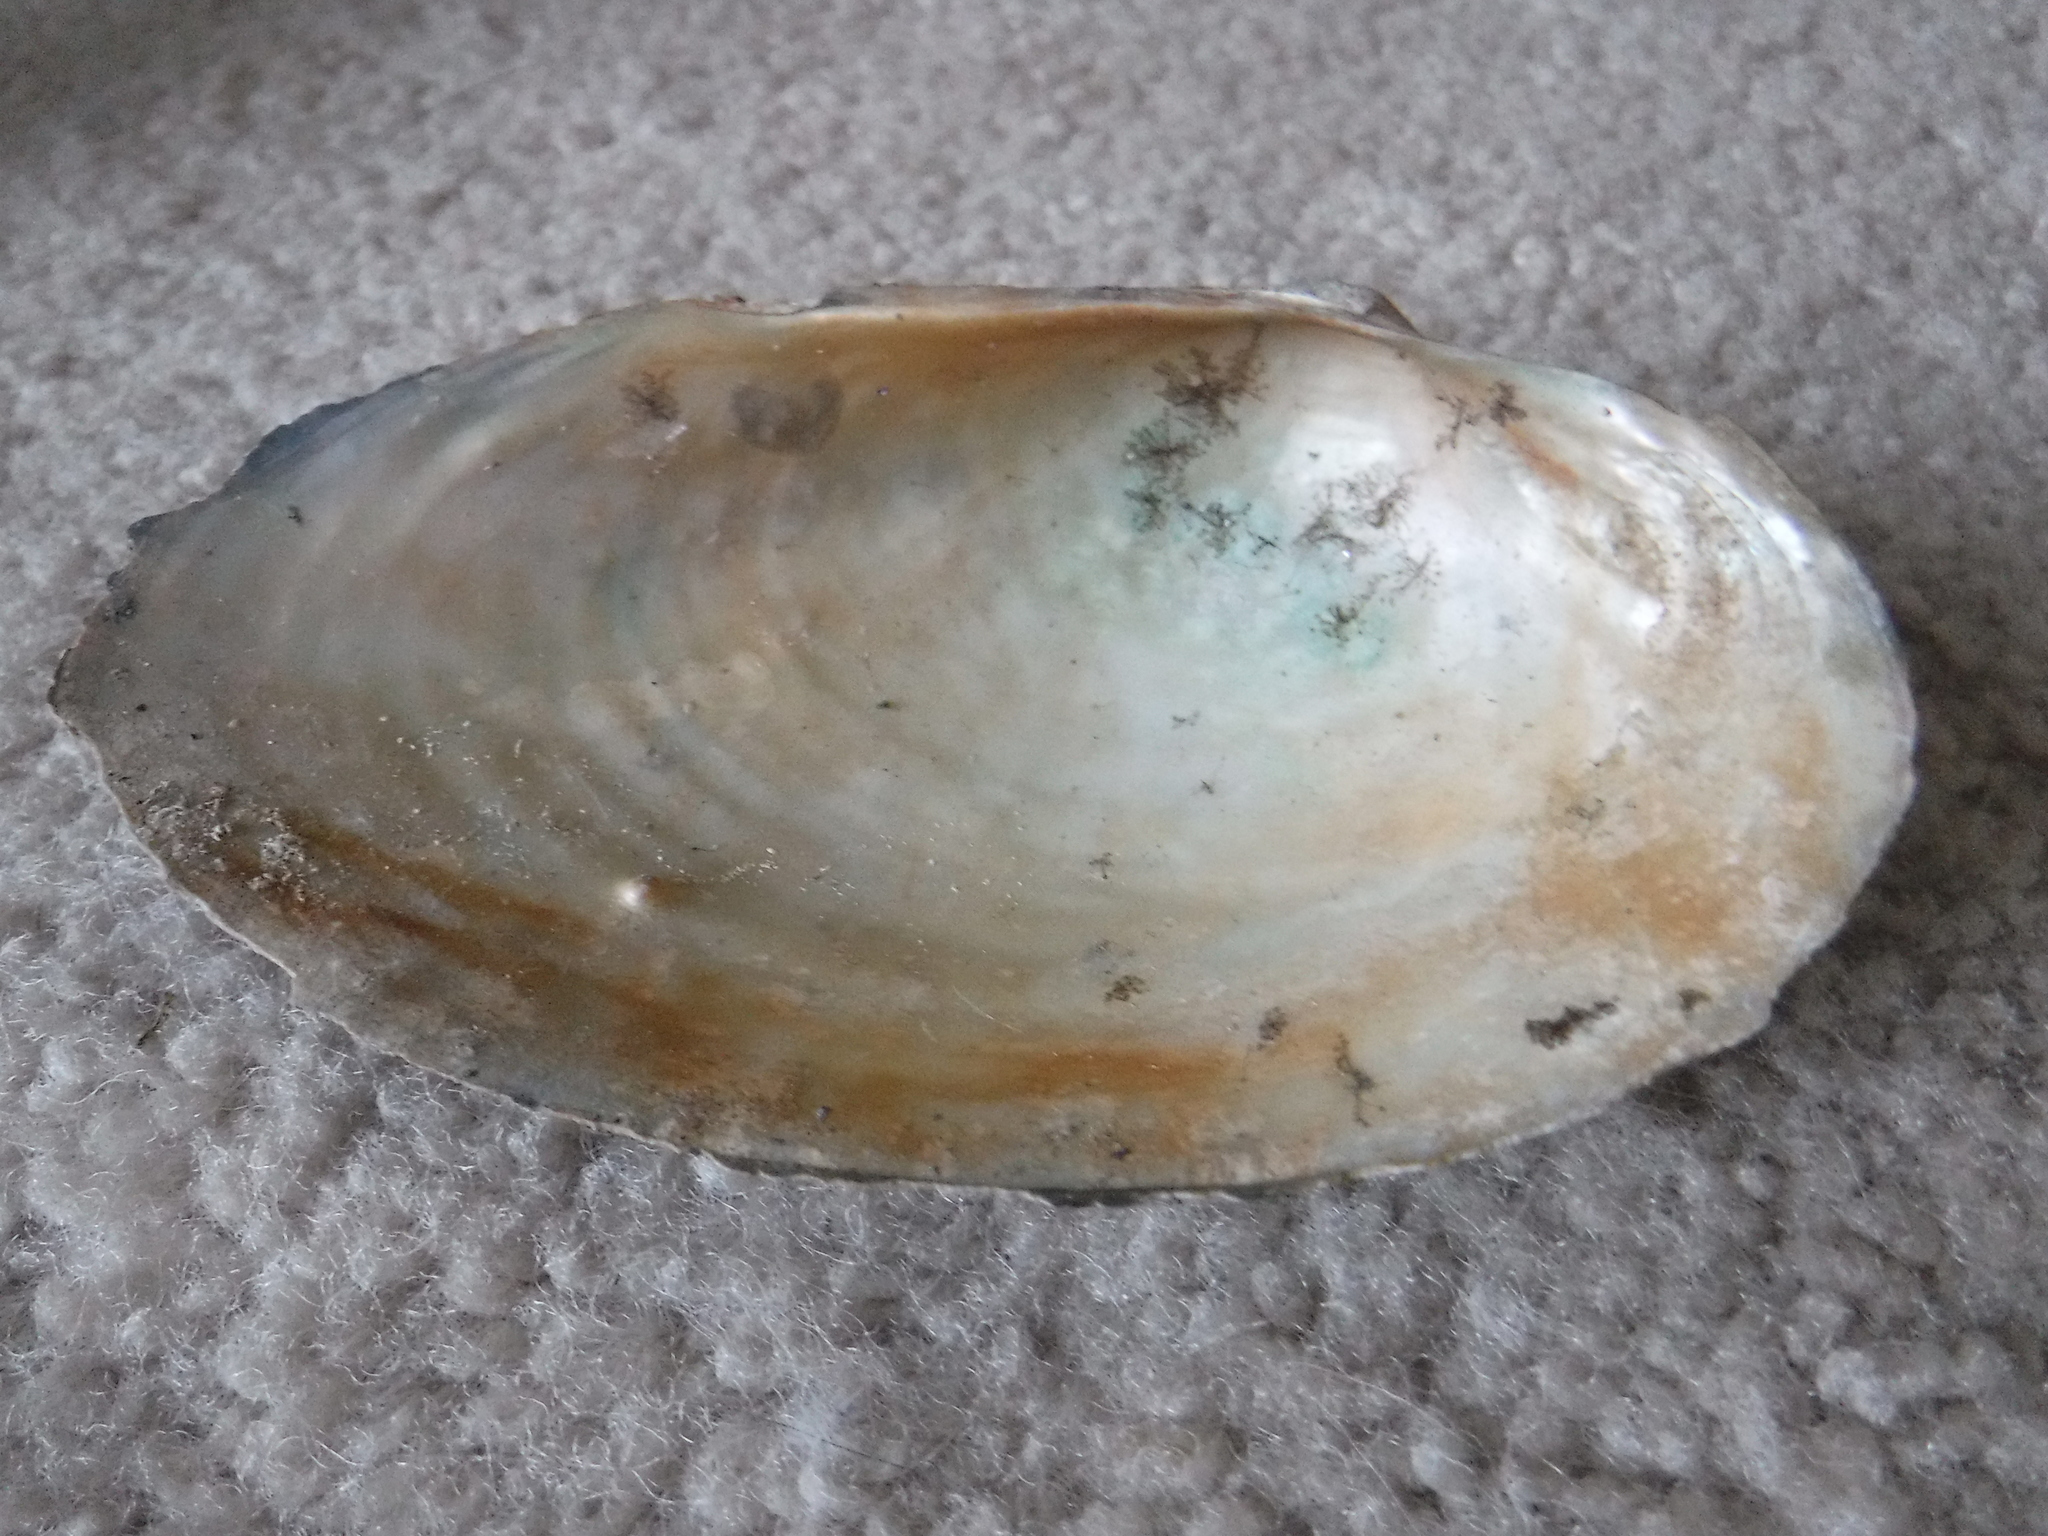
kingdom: Animalia
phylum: Mollusca
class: Bivalvia
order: Unionida
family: Unionidae
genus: Pyganodon
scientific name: Pyganodon grandis
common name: Giant floater
